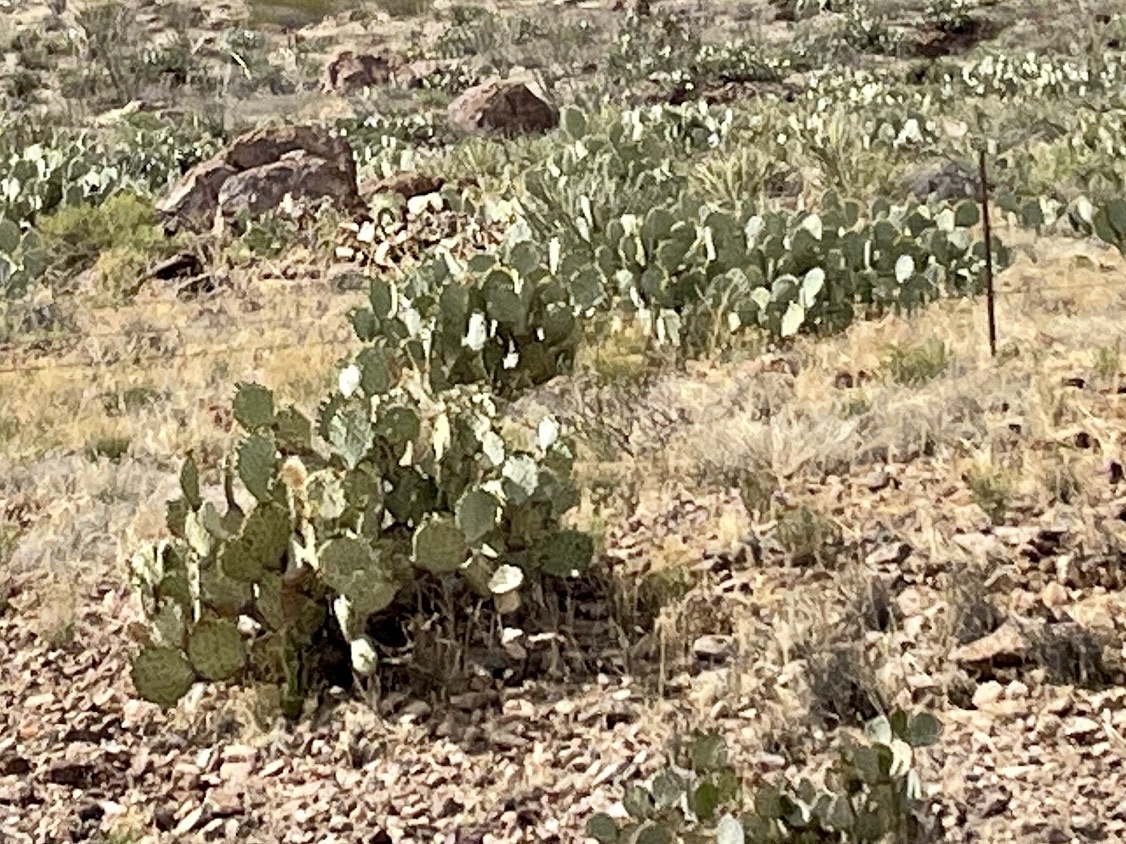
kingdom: Plantae
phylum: Tracheophyta
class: Magnoliopsida
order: Caryophyllales
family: Cactaceae
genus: Opuntia
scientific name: Opuntia engelmannii
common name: Cactus-apple
